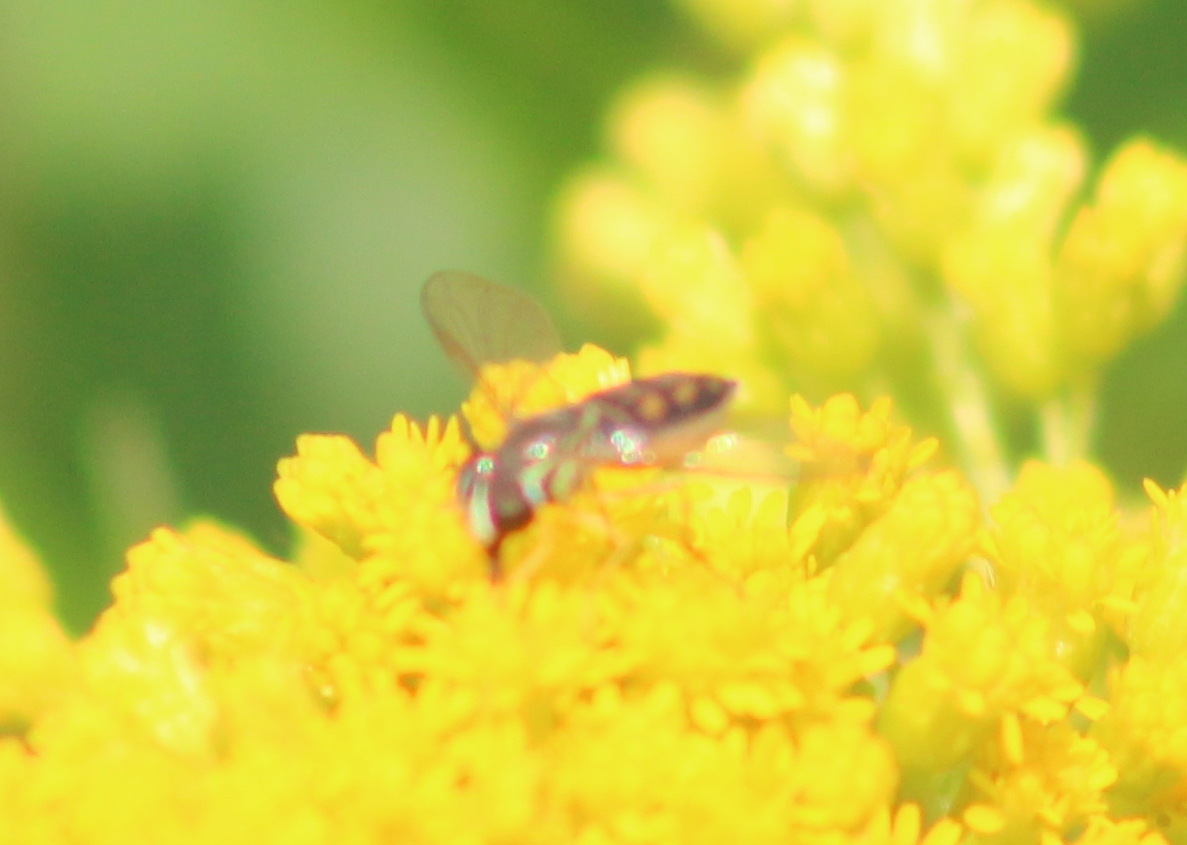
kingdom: Animalia
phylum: Arthropoda
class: Insecta
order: Diptera
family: Syrphidae
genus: Toxomerus
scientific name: Toxomerus marginatus
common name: Syrphid fly
